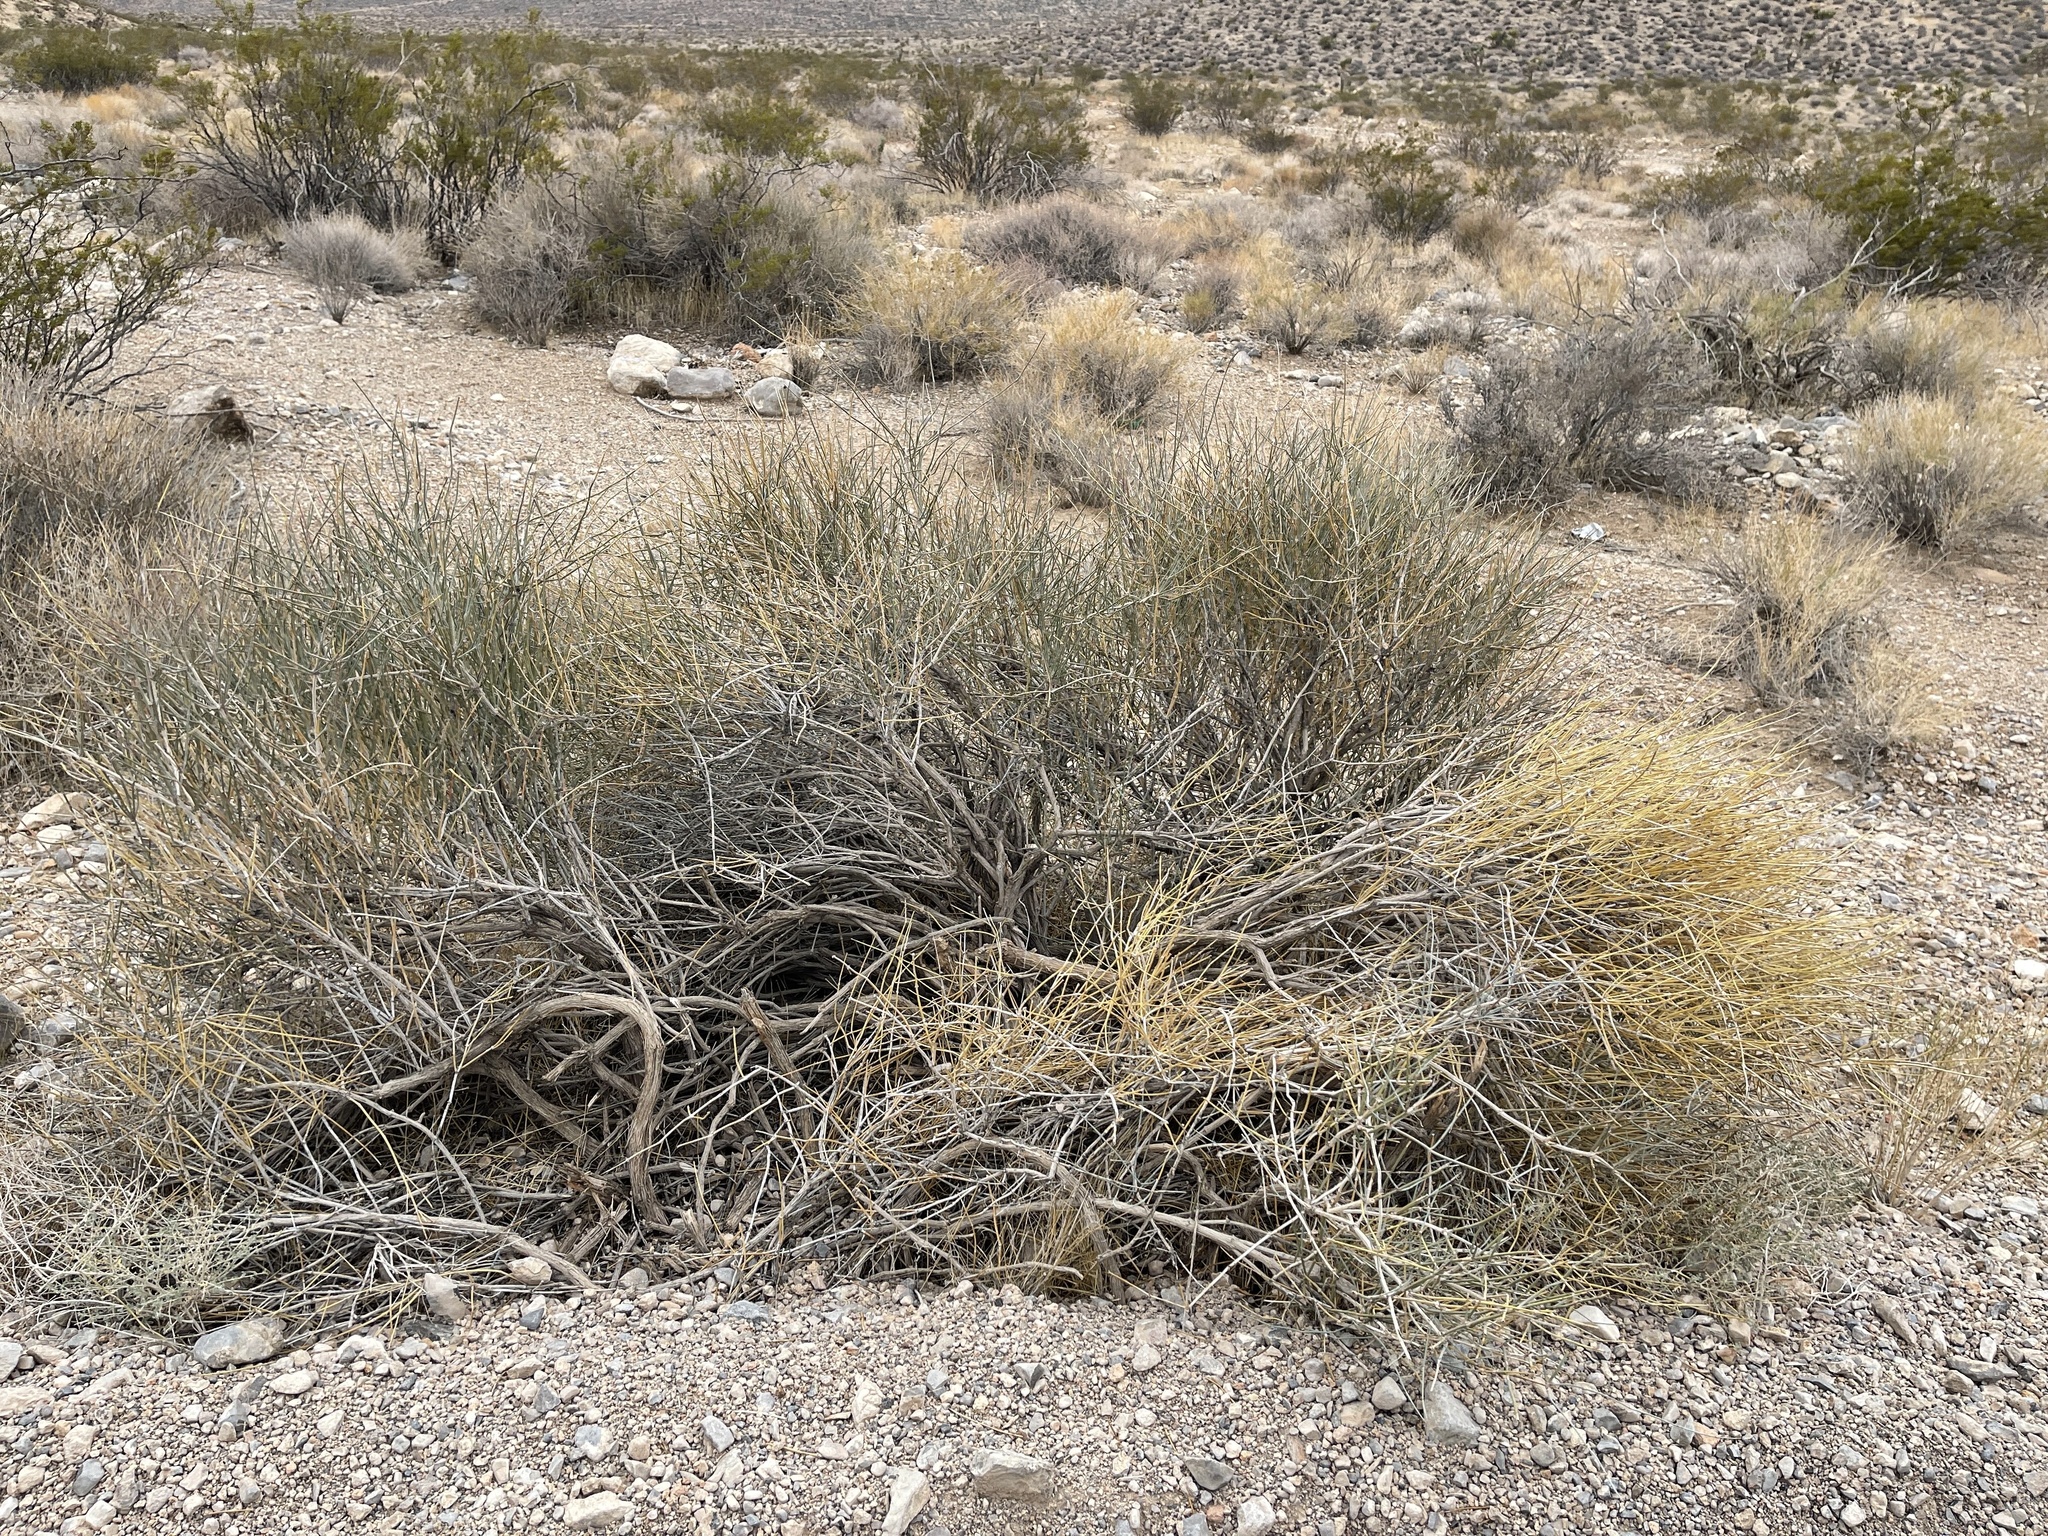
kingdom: Plantae
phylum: Tracheophyta
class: Gnetopsida
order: Ephedrales
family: Ephedraceae
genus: Ephedra
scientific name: Ephedra nevadensis
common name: Gray ephedra
